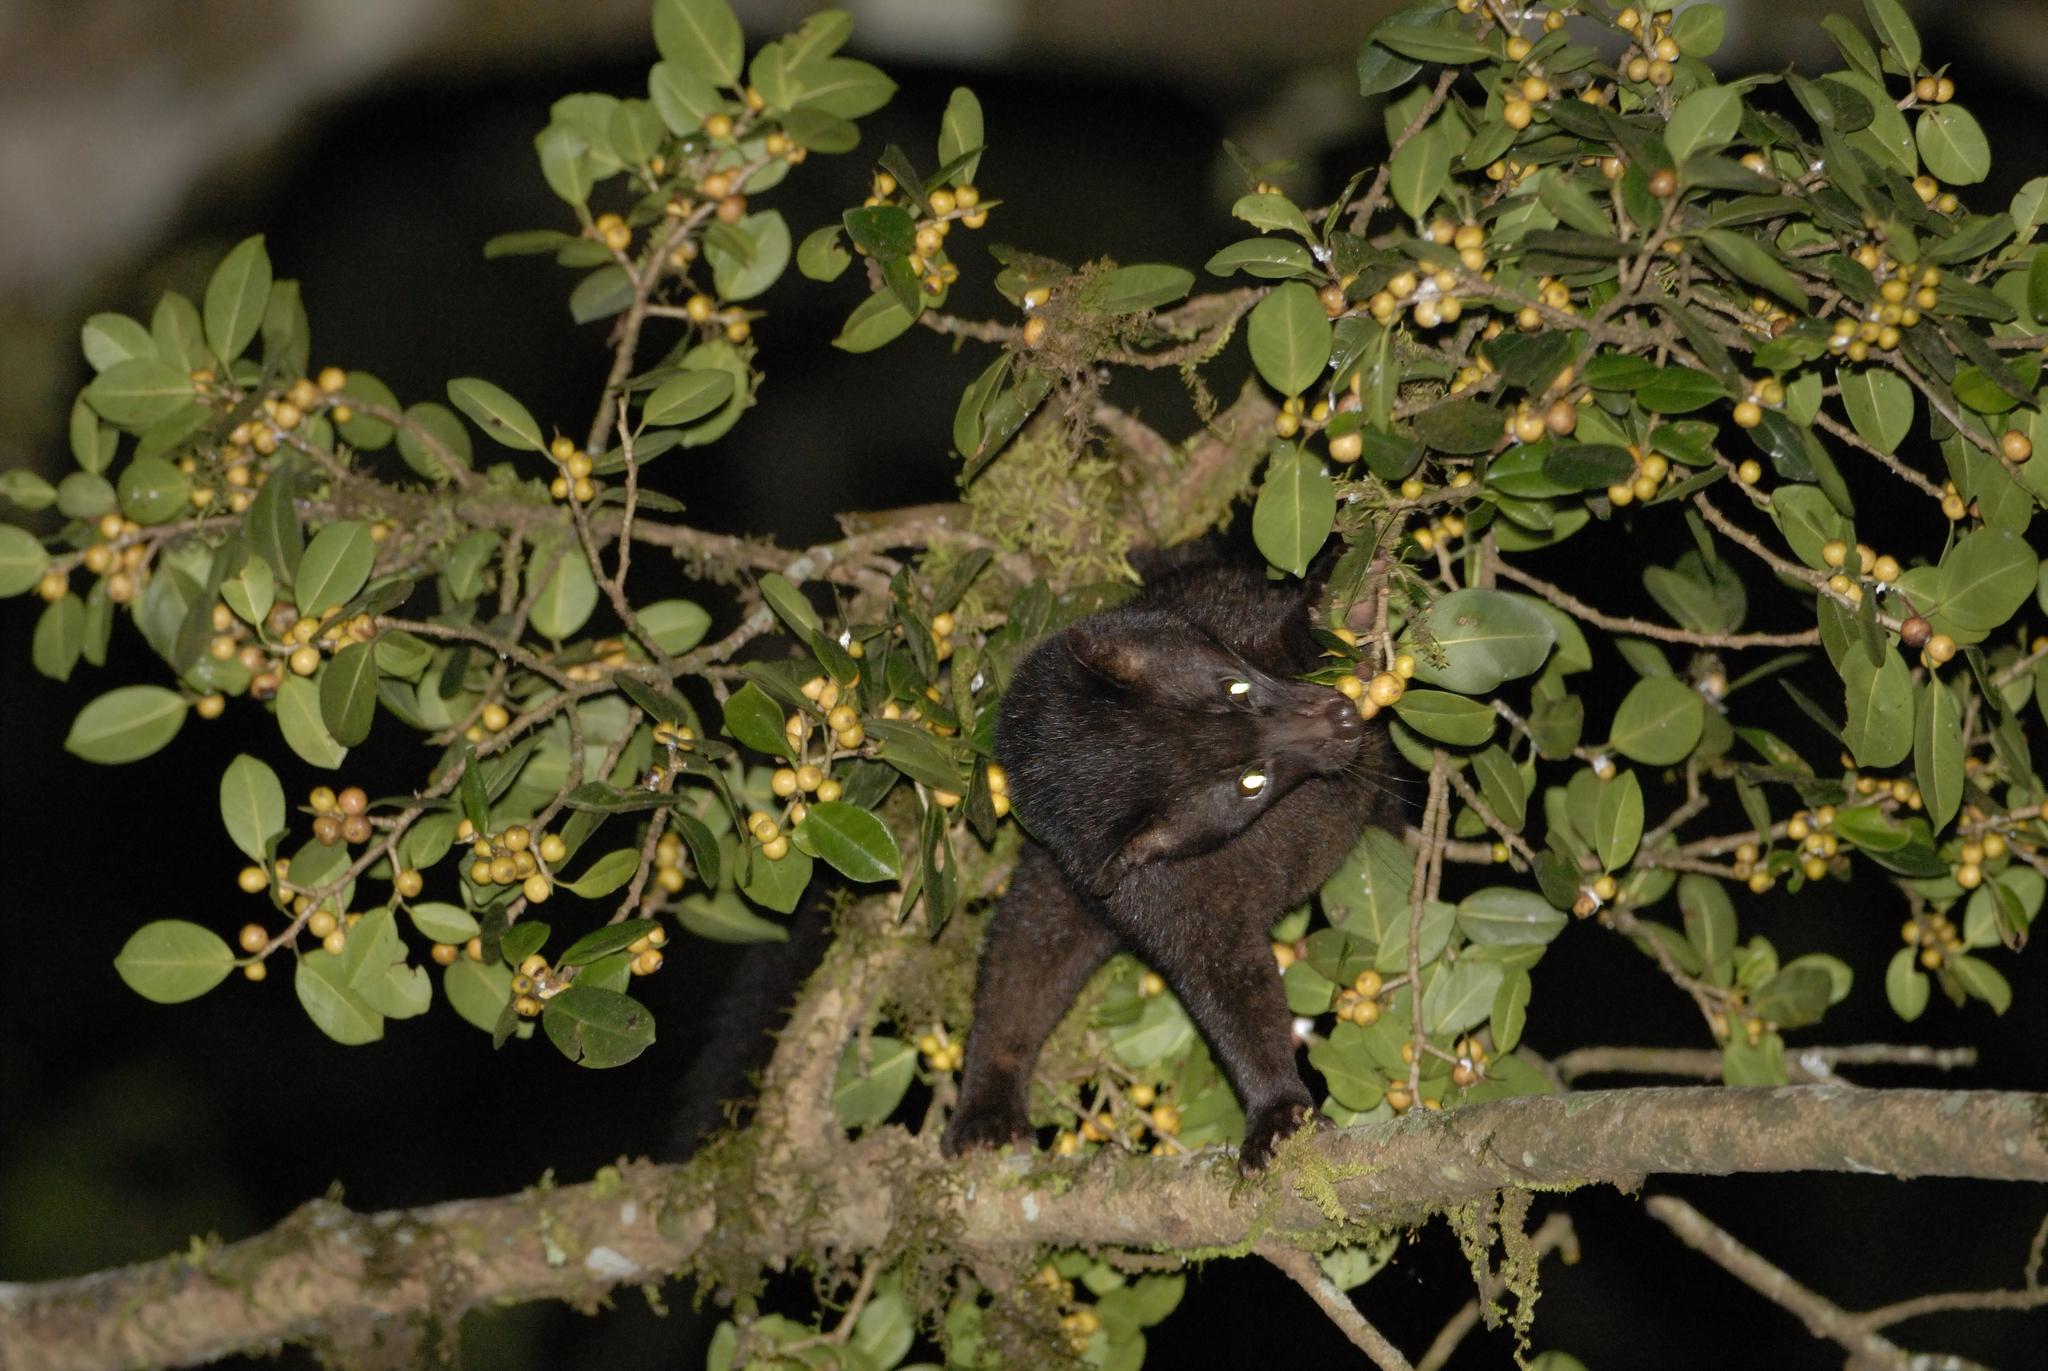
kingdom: Animalia
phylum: Chordata
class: Mammalia
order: Carnivora
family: Viverridae
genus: Paradoxurus
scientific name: Paradoxurus jerdoni
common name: Jerdon's palm civet
